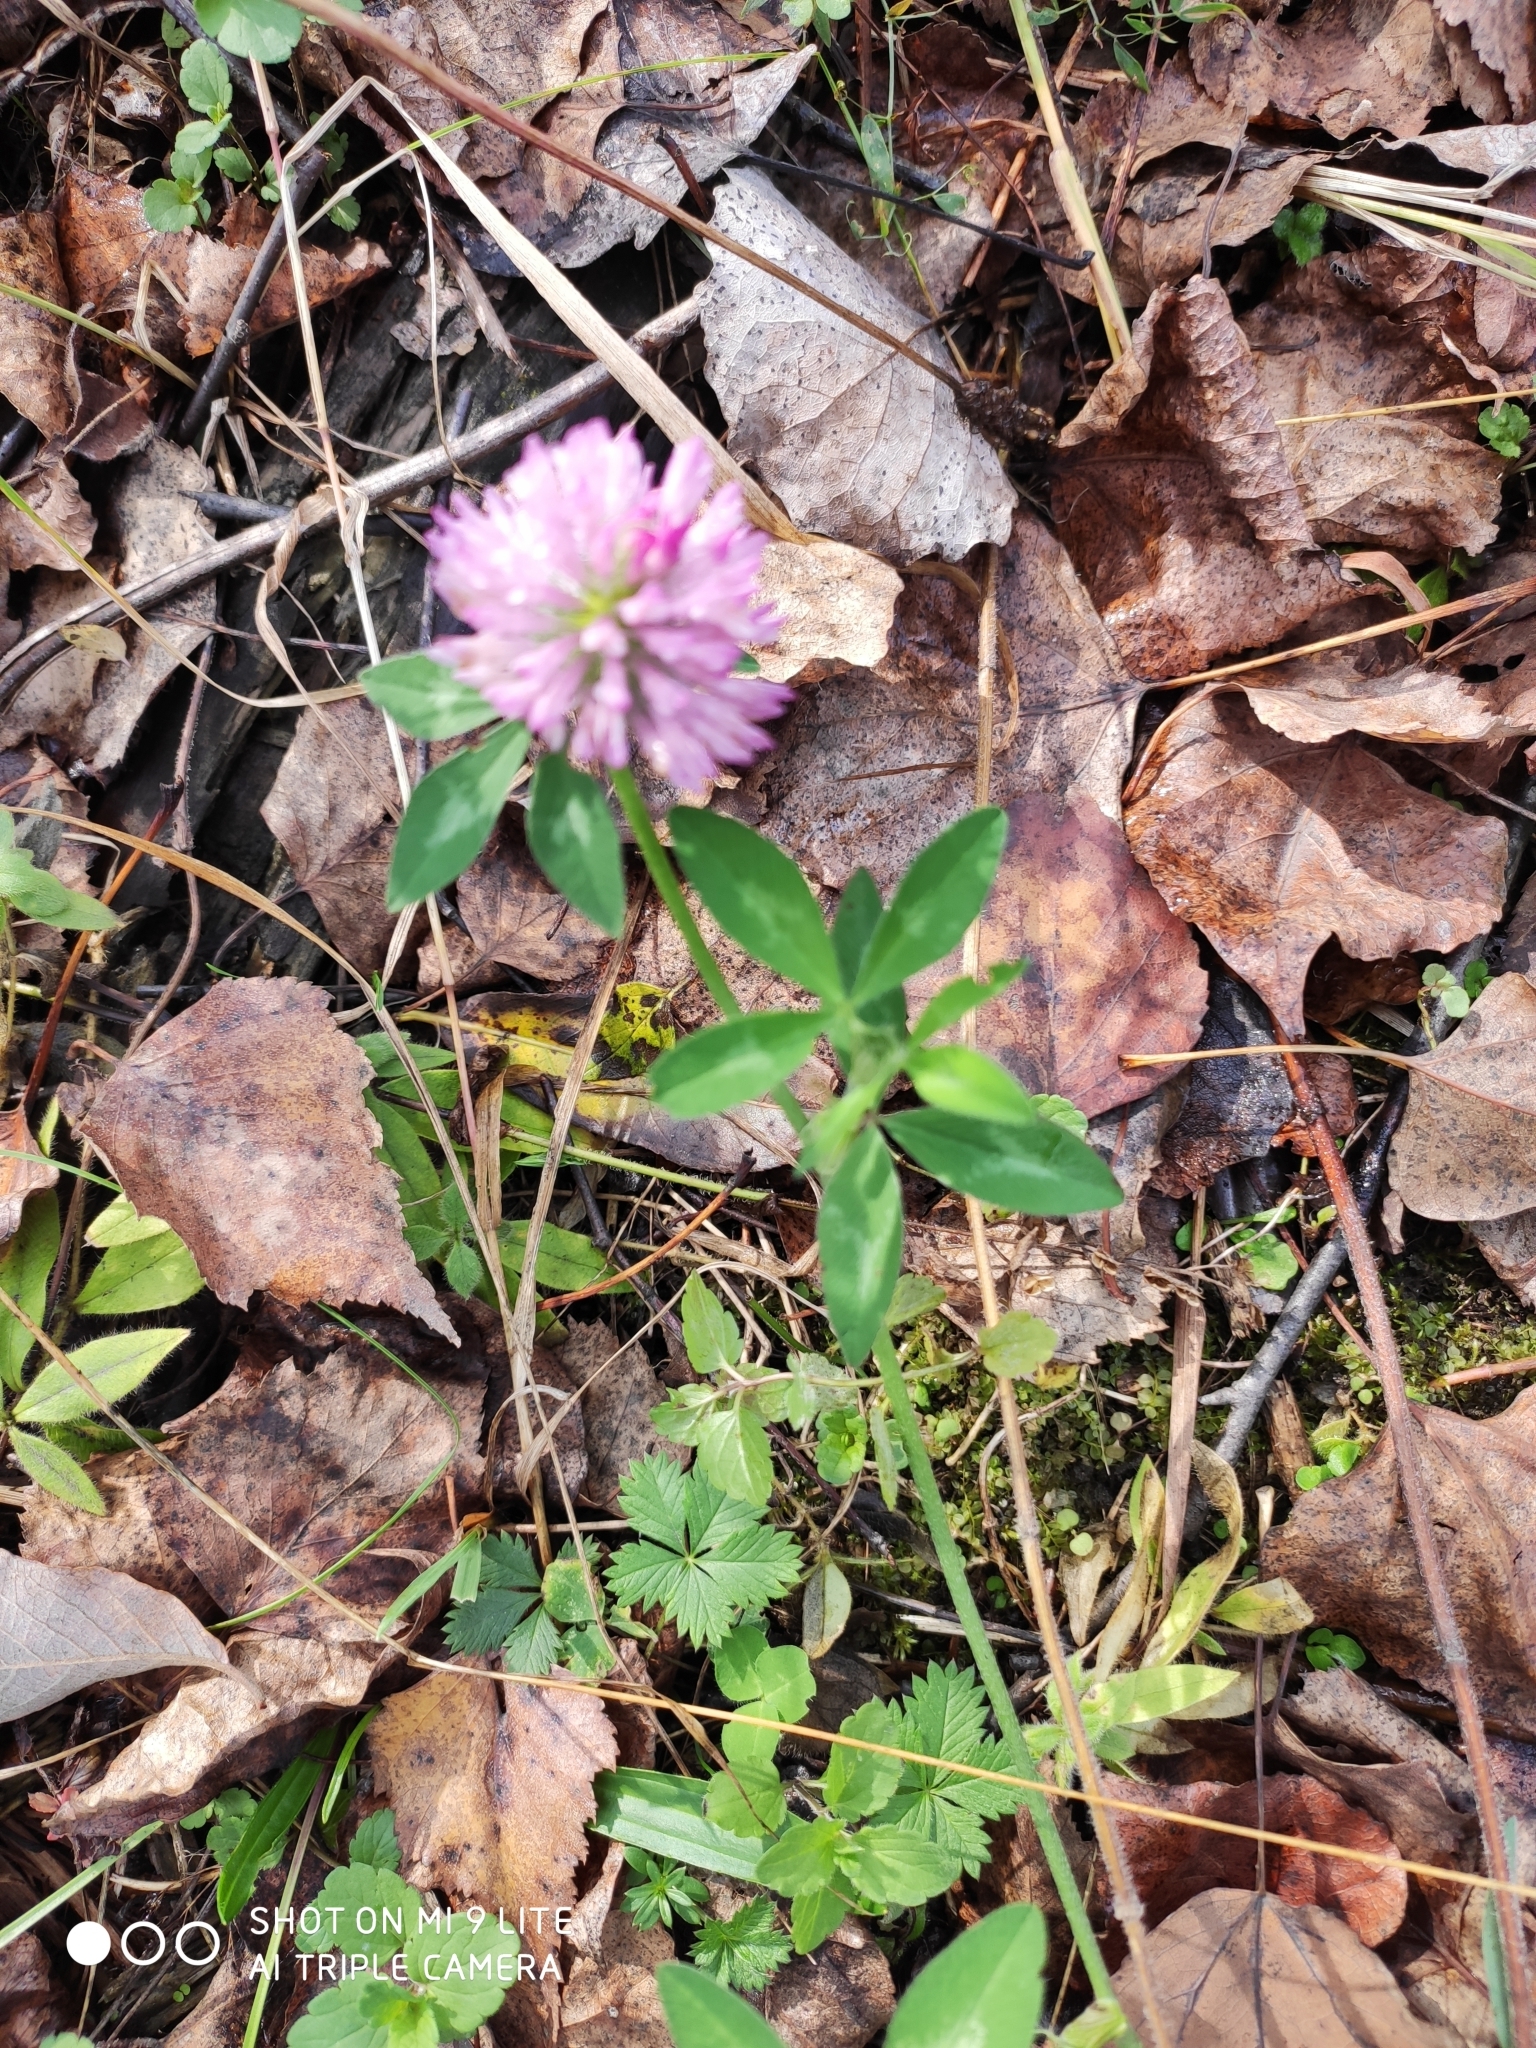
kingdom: Plantae
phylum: Tracheophyta
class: Magnoliopsida
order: Fabales
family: Fabaceae
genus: Trifolium
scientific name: Trifolium pratense
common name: Red clover
